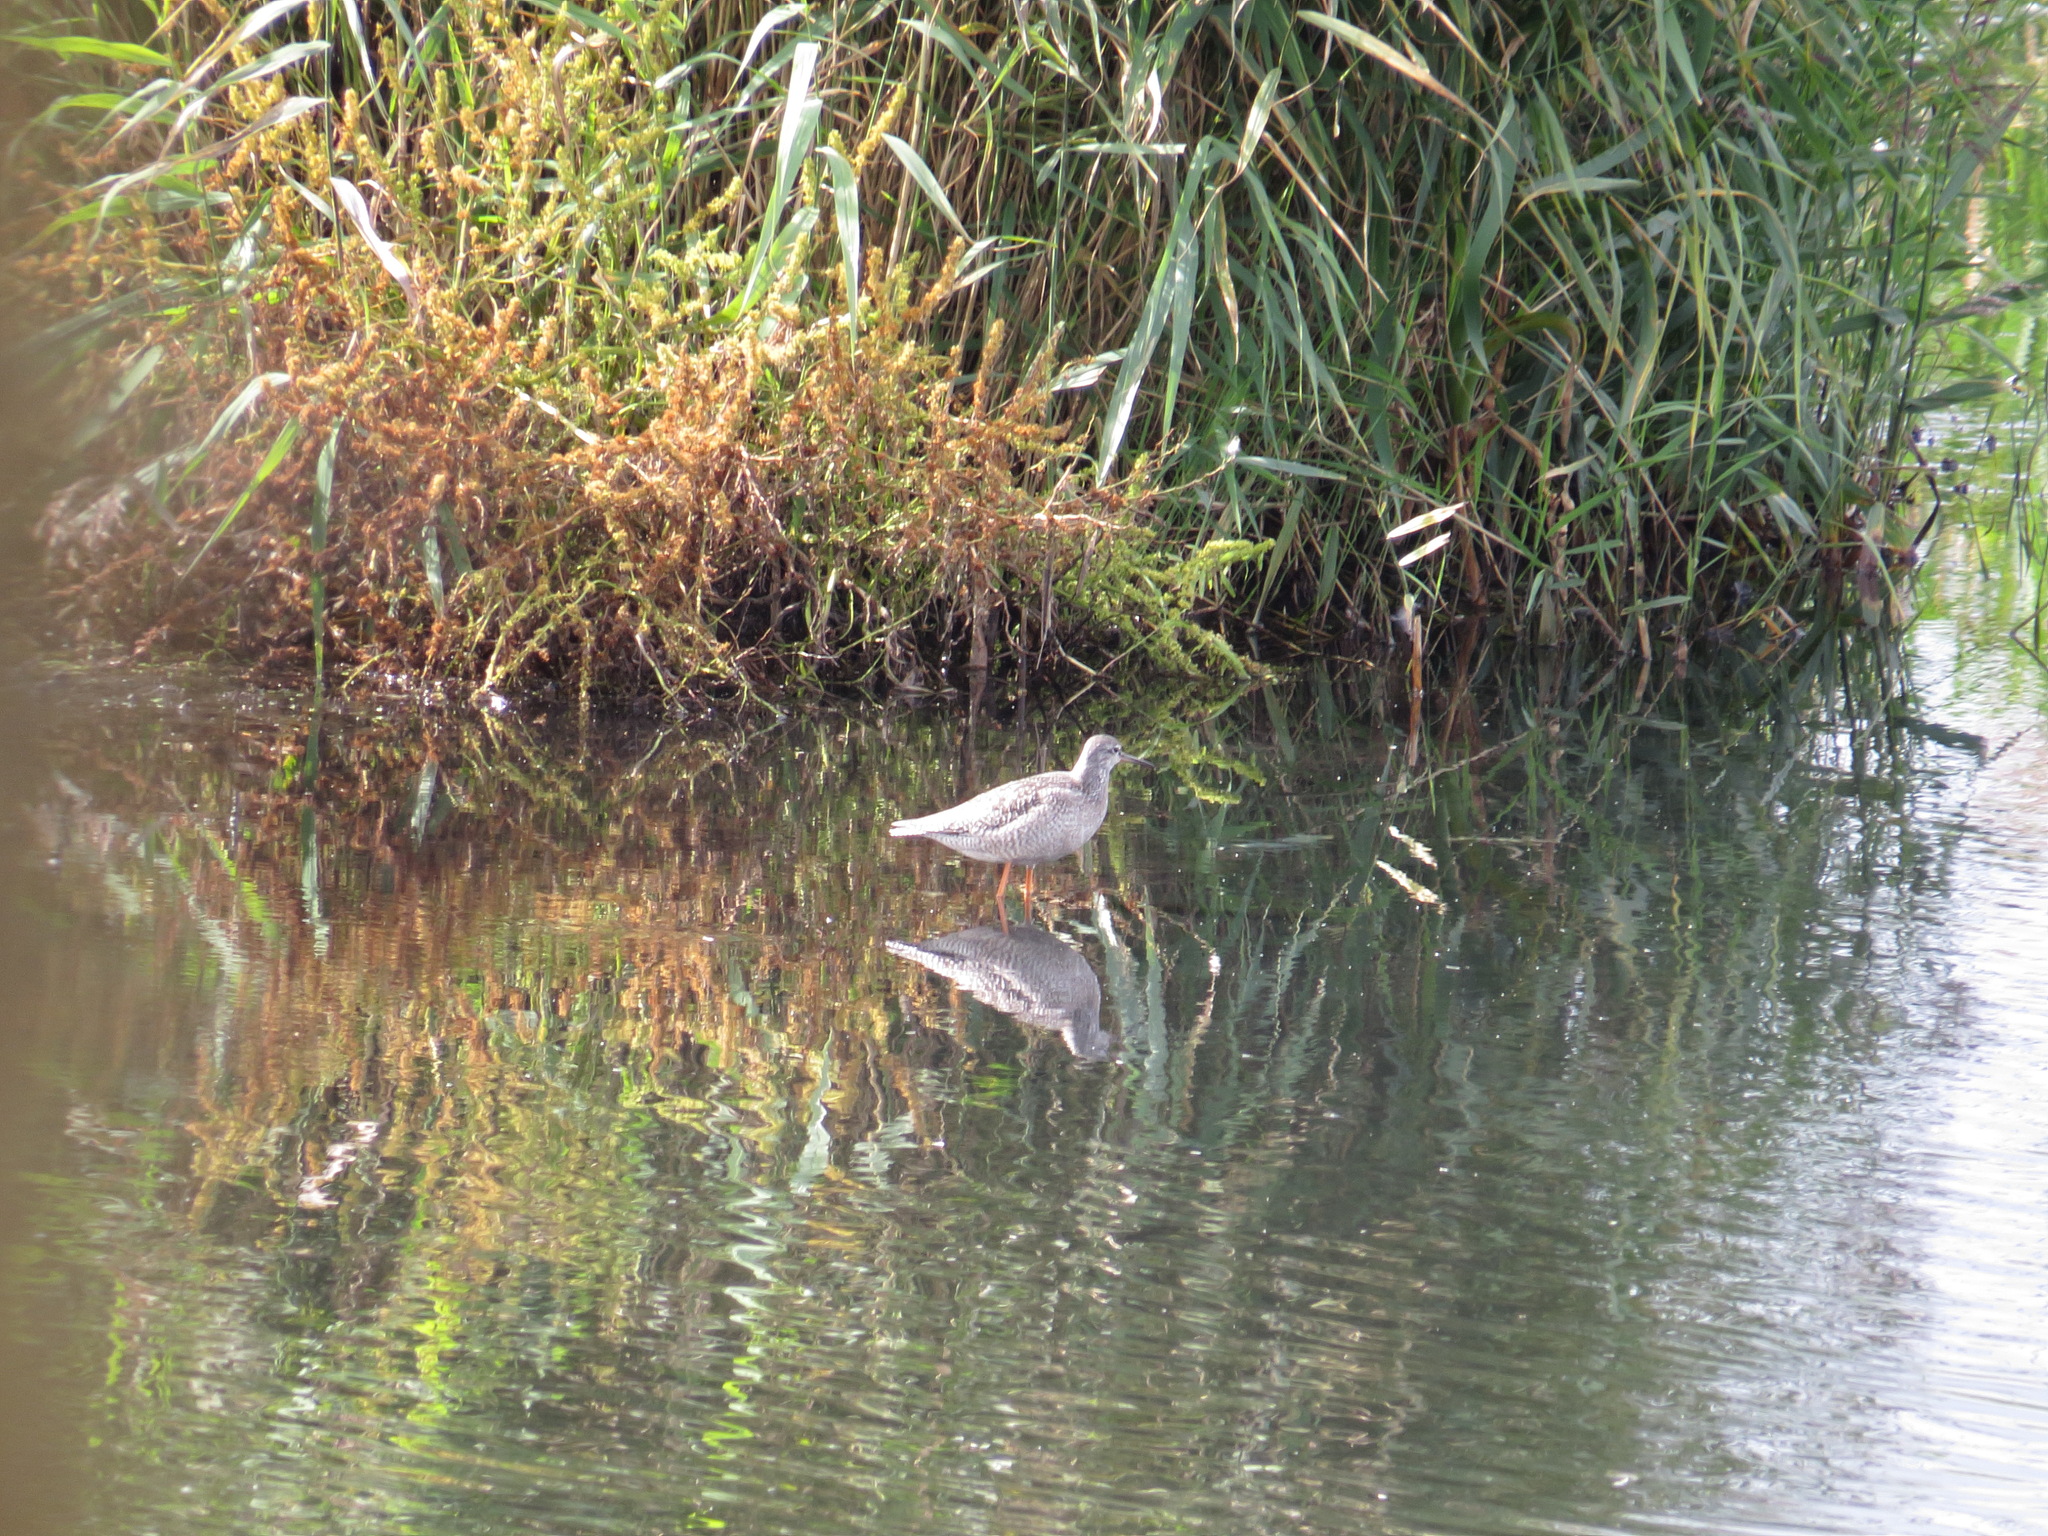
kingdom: Animalia
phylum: Chordata
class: Aves
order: Charadriiformes
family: Scolopacidae
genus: Tringa
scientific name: Tringa erythropus
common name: Spotted redshank
